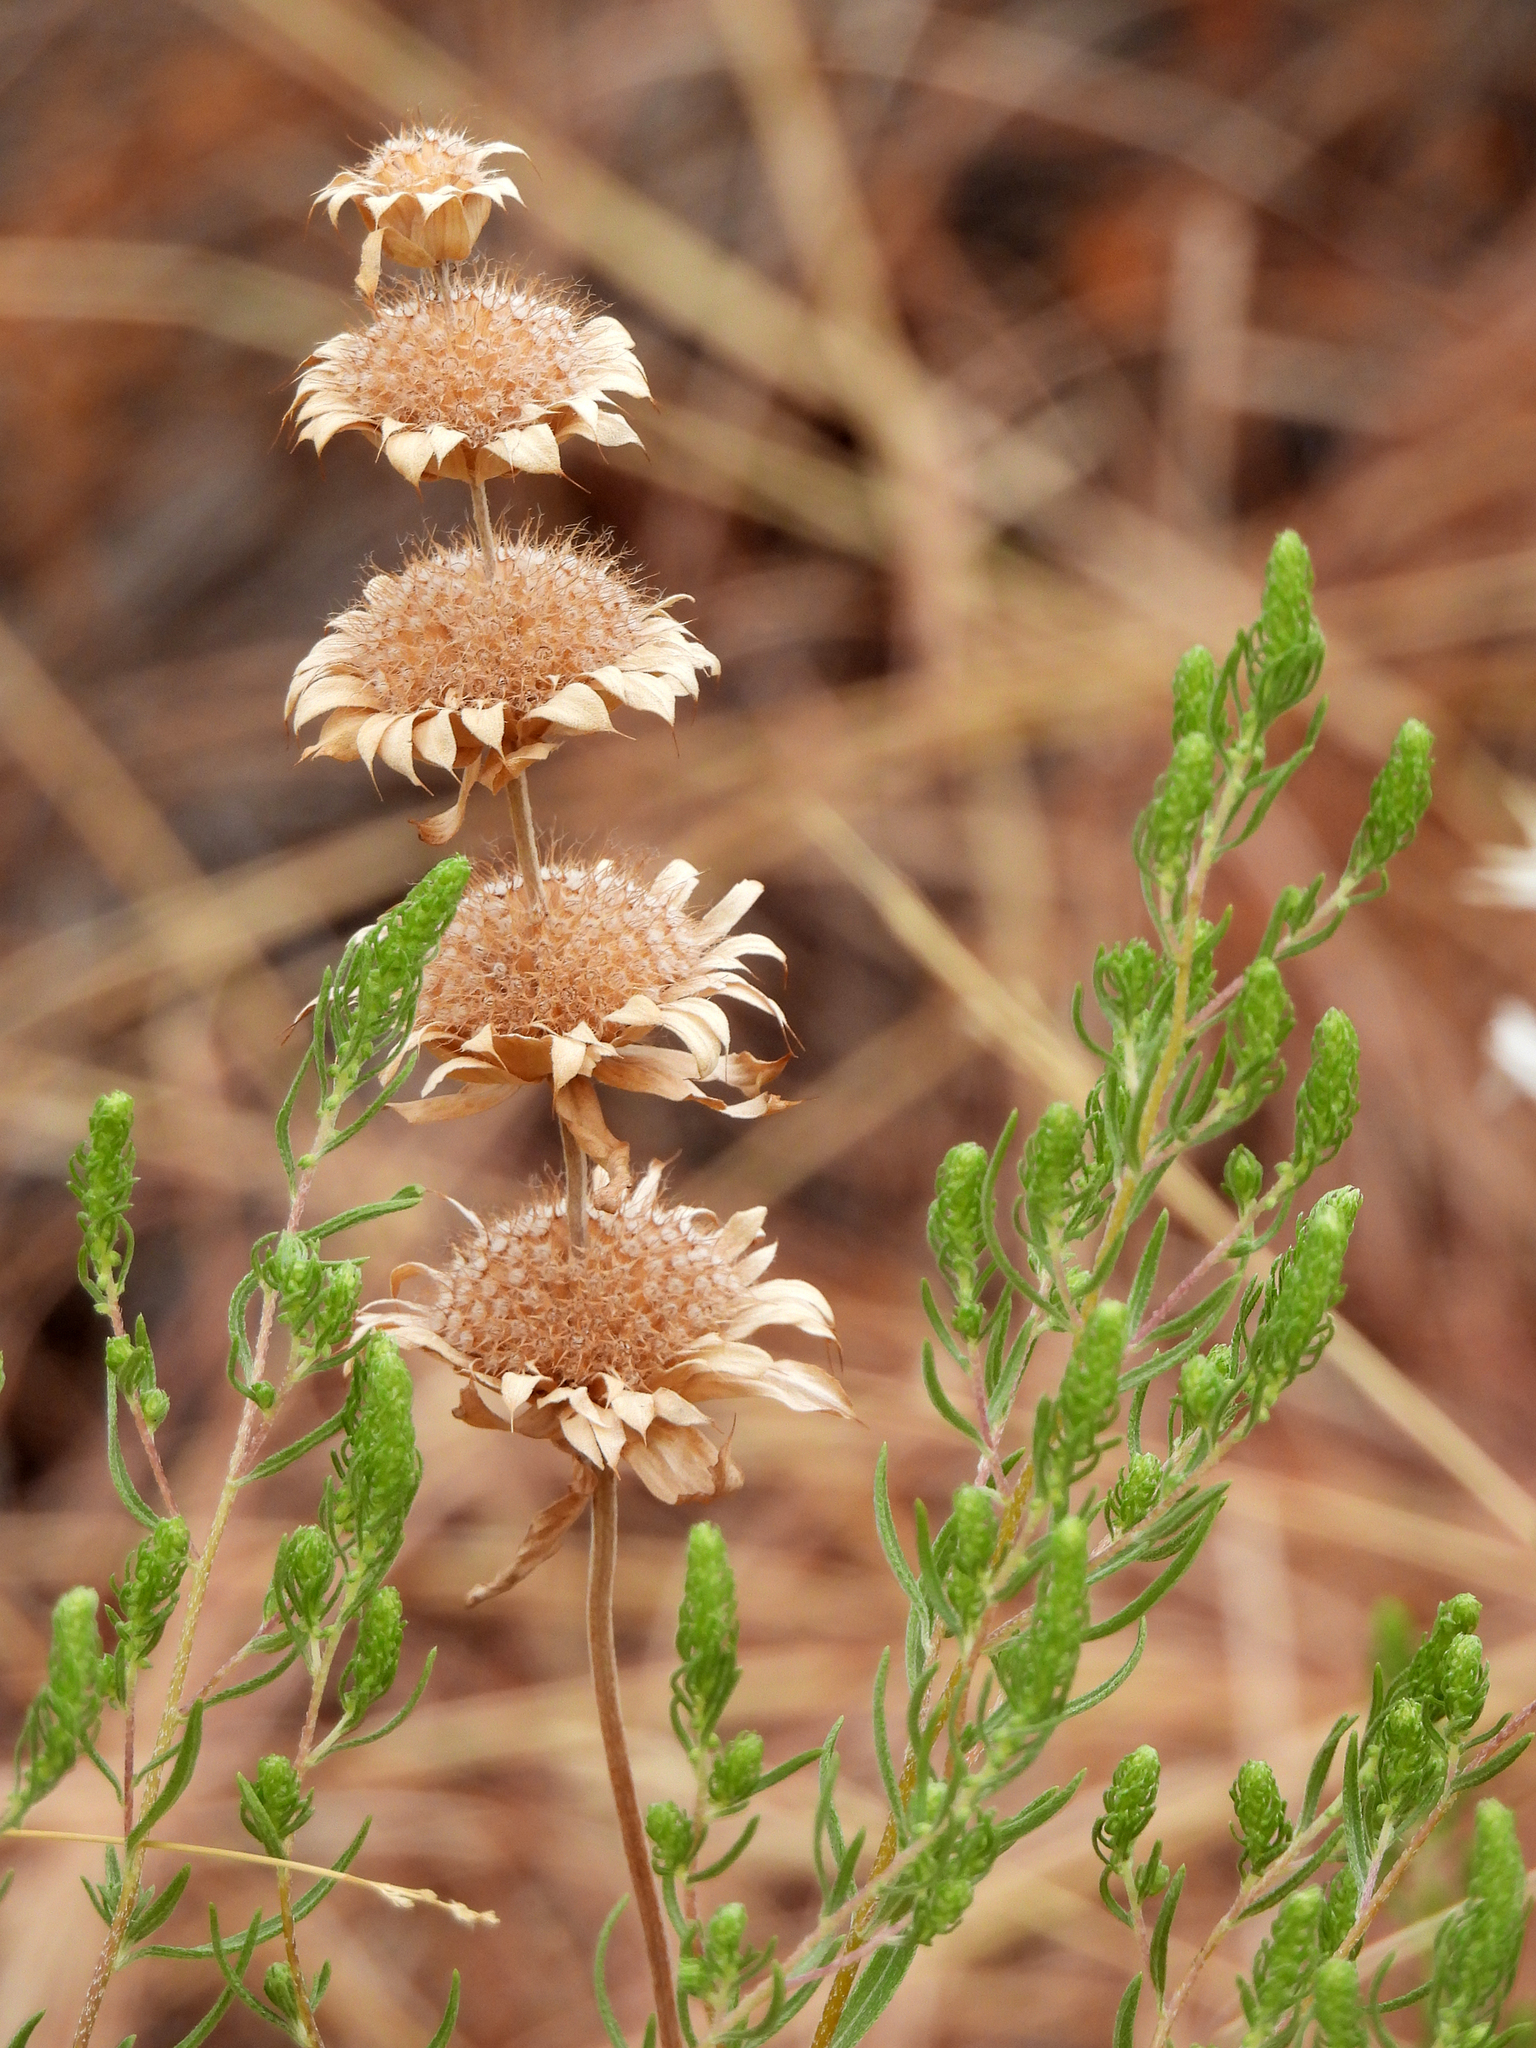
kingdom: Plantae
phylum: Tracheophyta
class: Magnoliopsida
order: Lamiales
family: Lamiaceae
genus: Monarda
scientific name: Monarda citriodora
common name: Lemon beebalm
